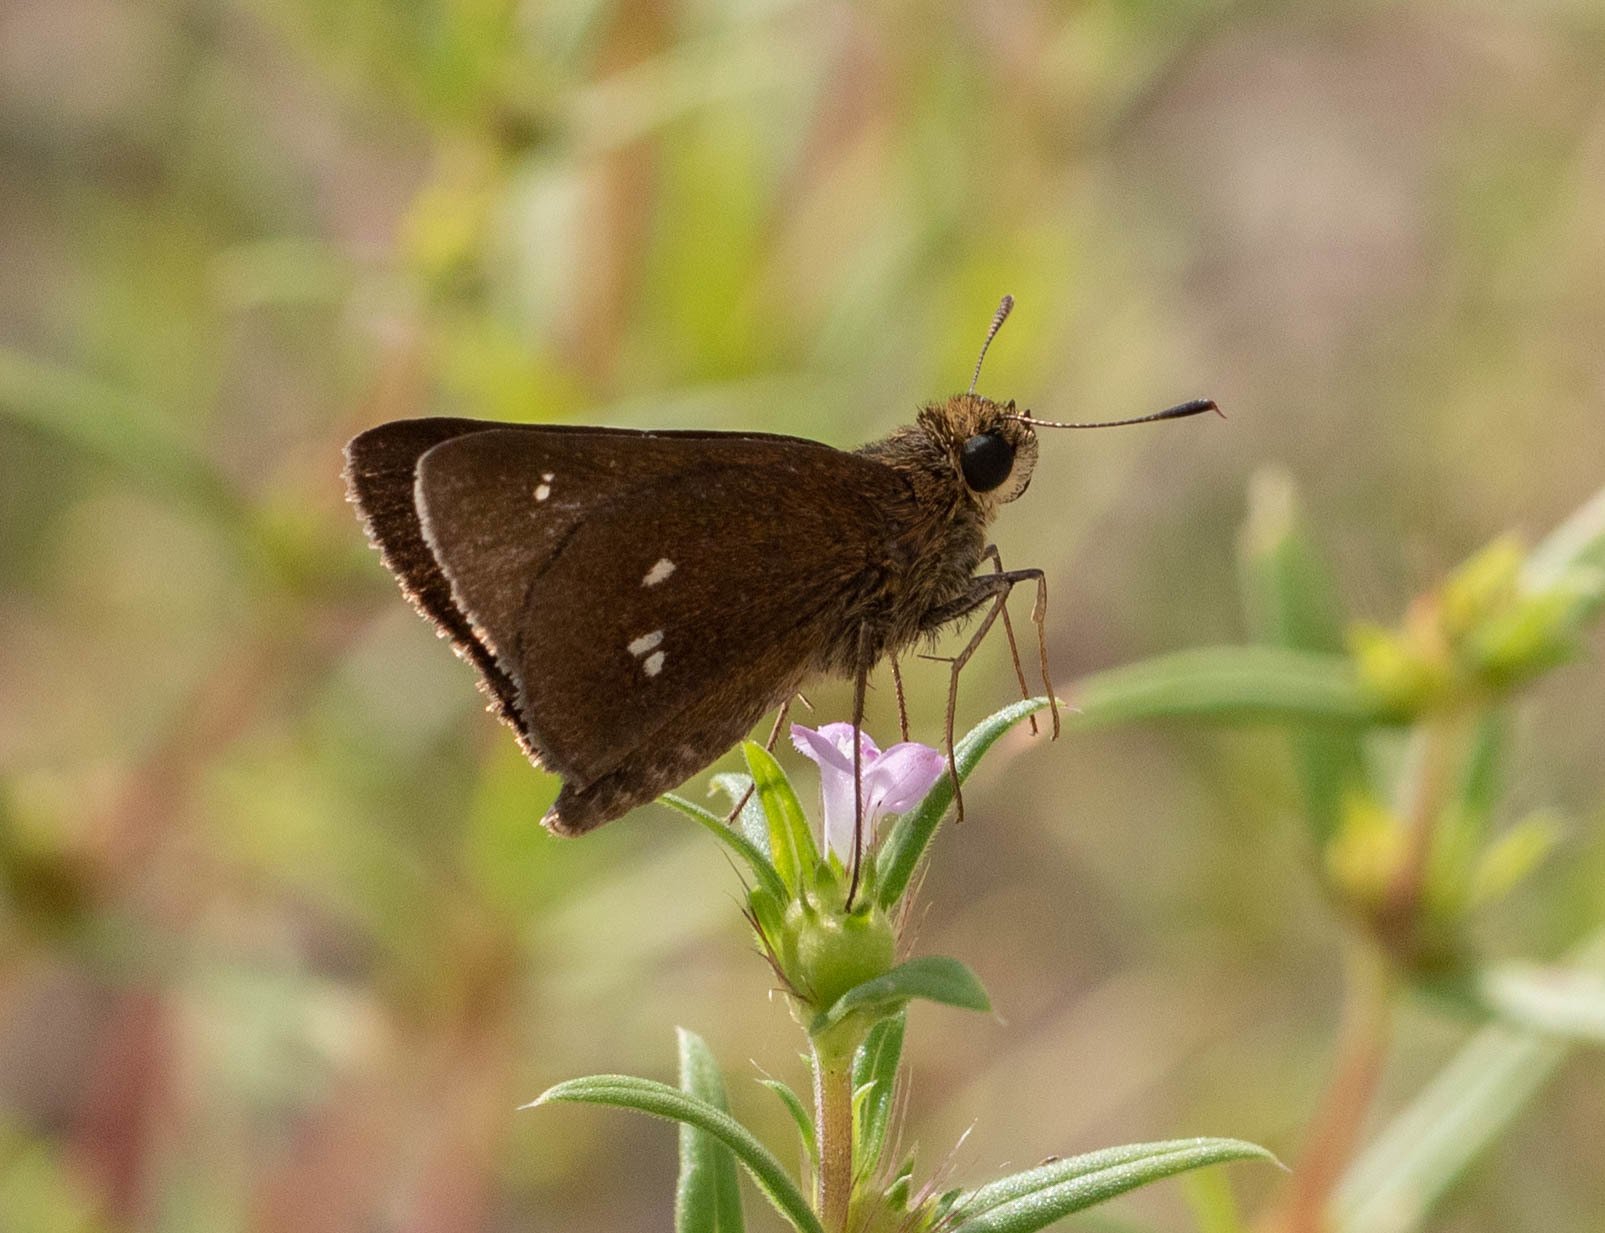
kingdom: Animalia
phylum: Arthropoda
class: Insecta
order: Lepidoptera
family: Hesperiidae
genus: Oligoria
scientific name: Oligoria maculata
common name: Twin-spot skipper
